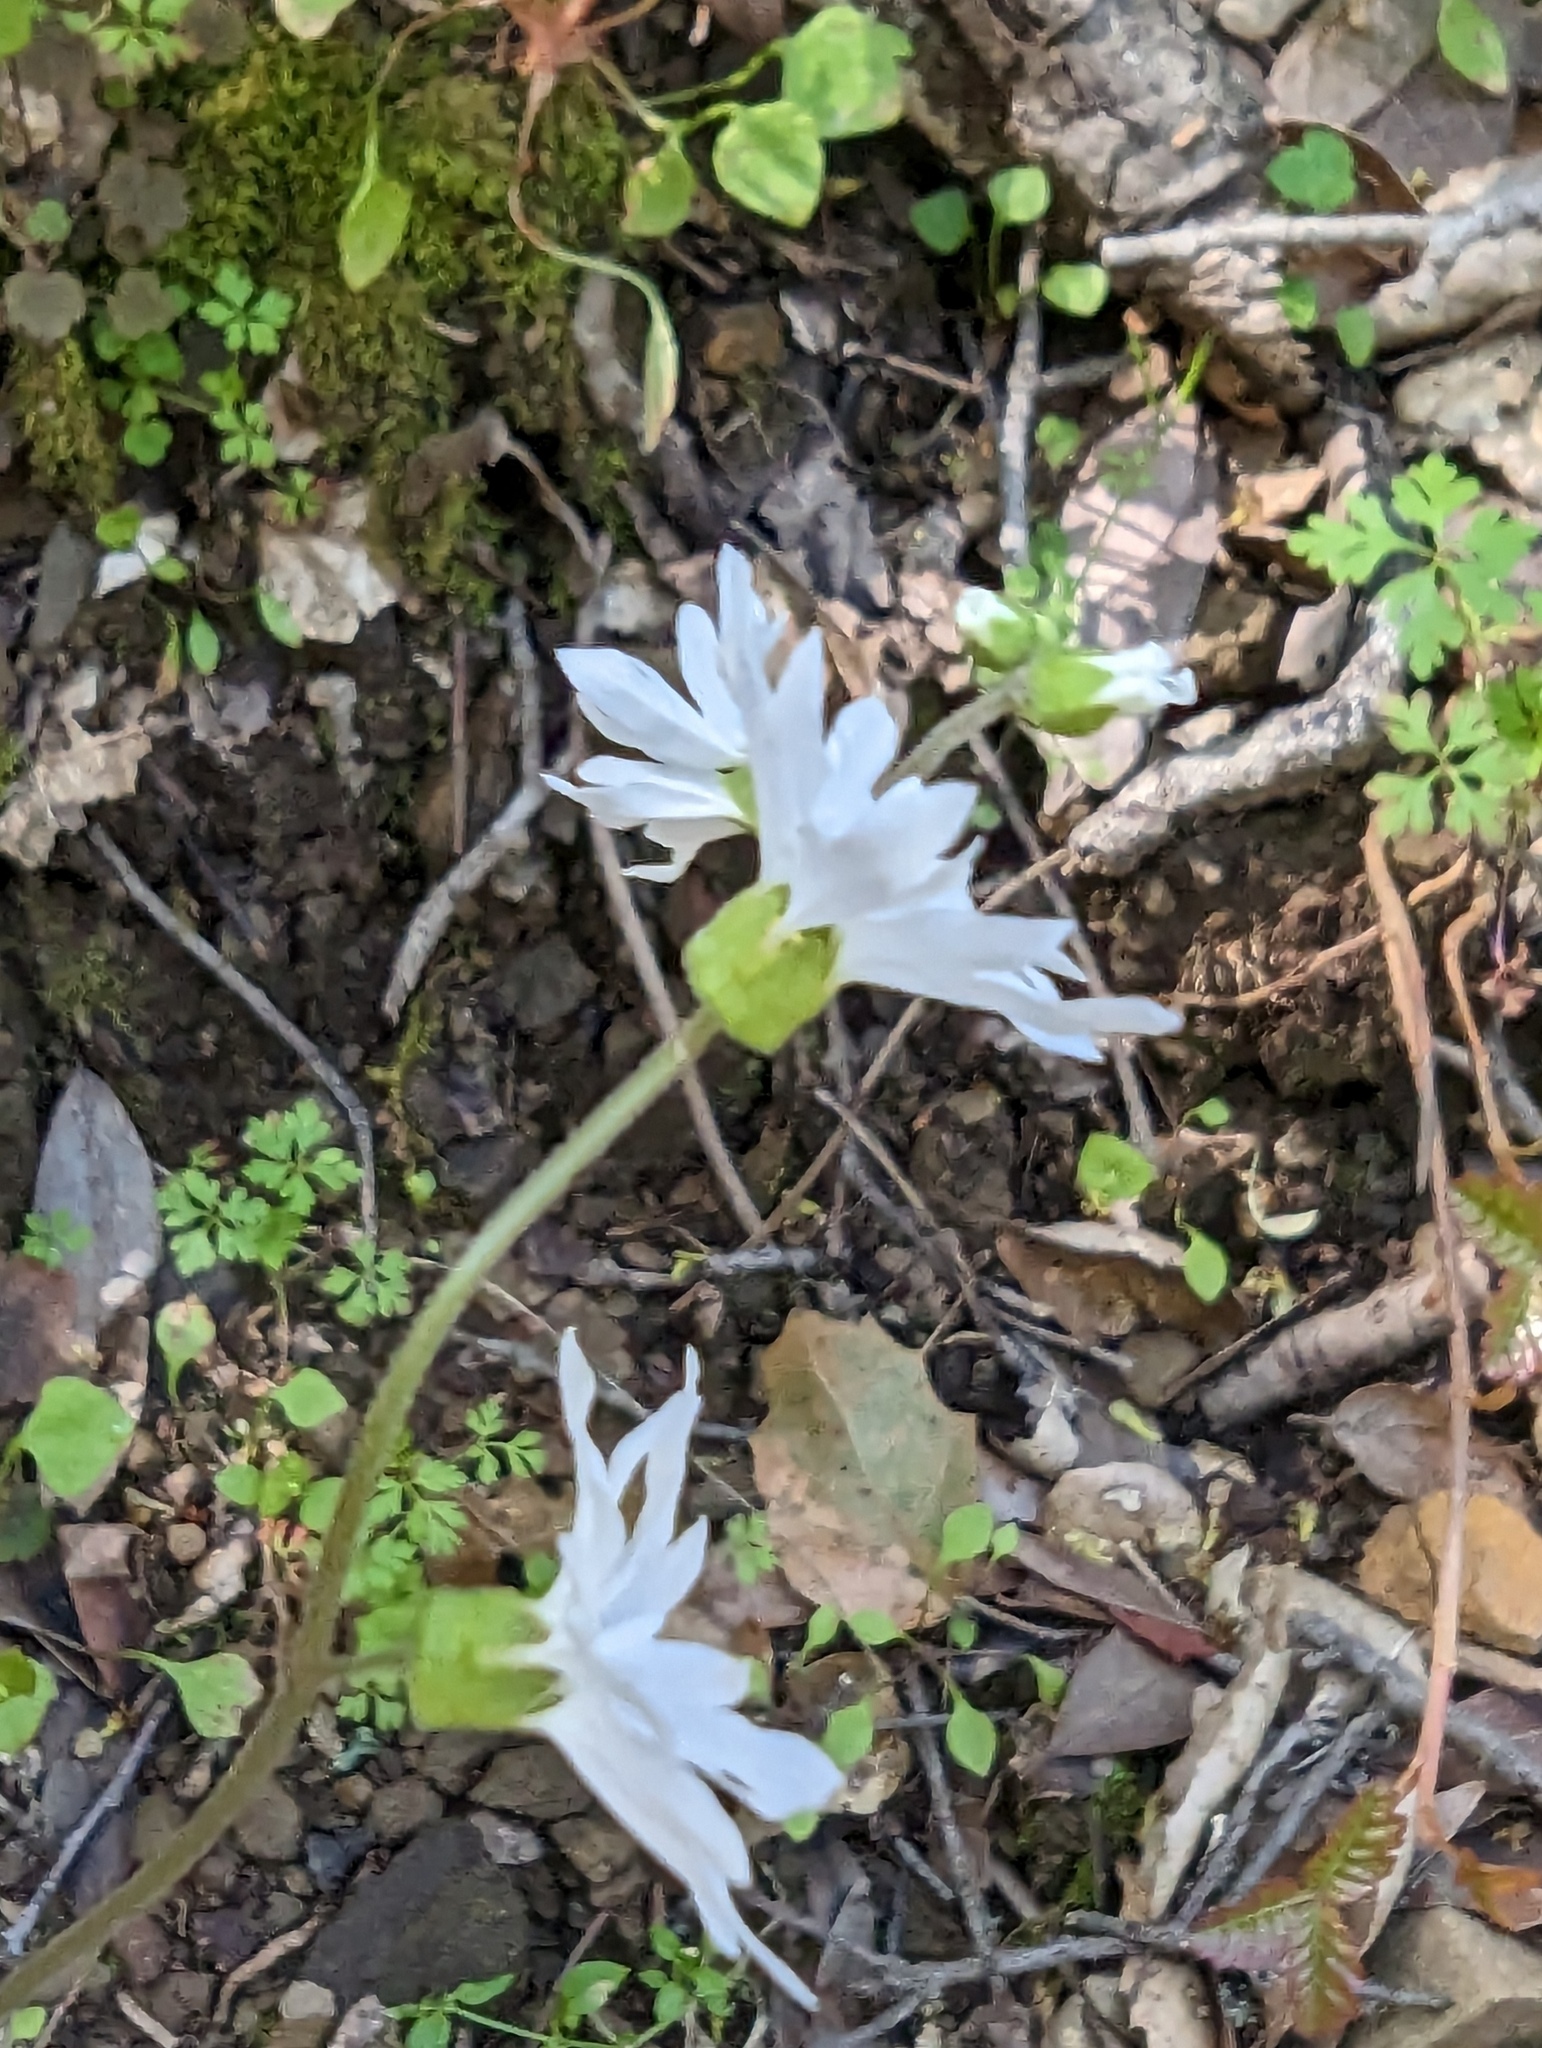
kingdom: Plantae
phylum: Tracheophyta
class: Magnoliopsida
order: Saxifragales
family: Saxifragaceae
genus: Lithophragma
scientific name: Lithophragma heterophyllum
